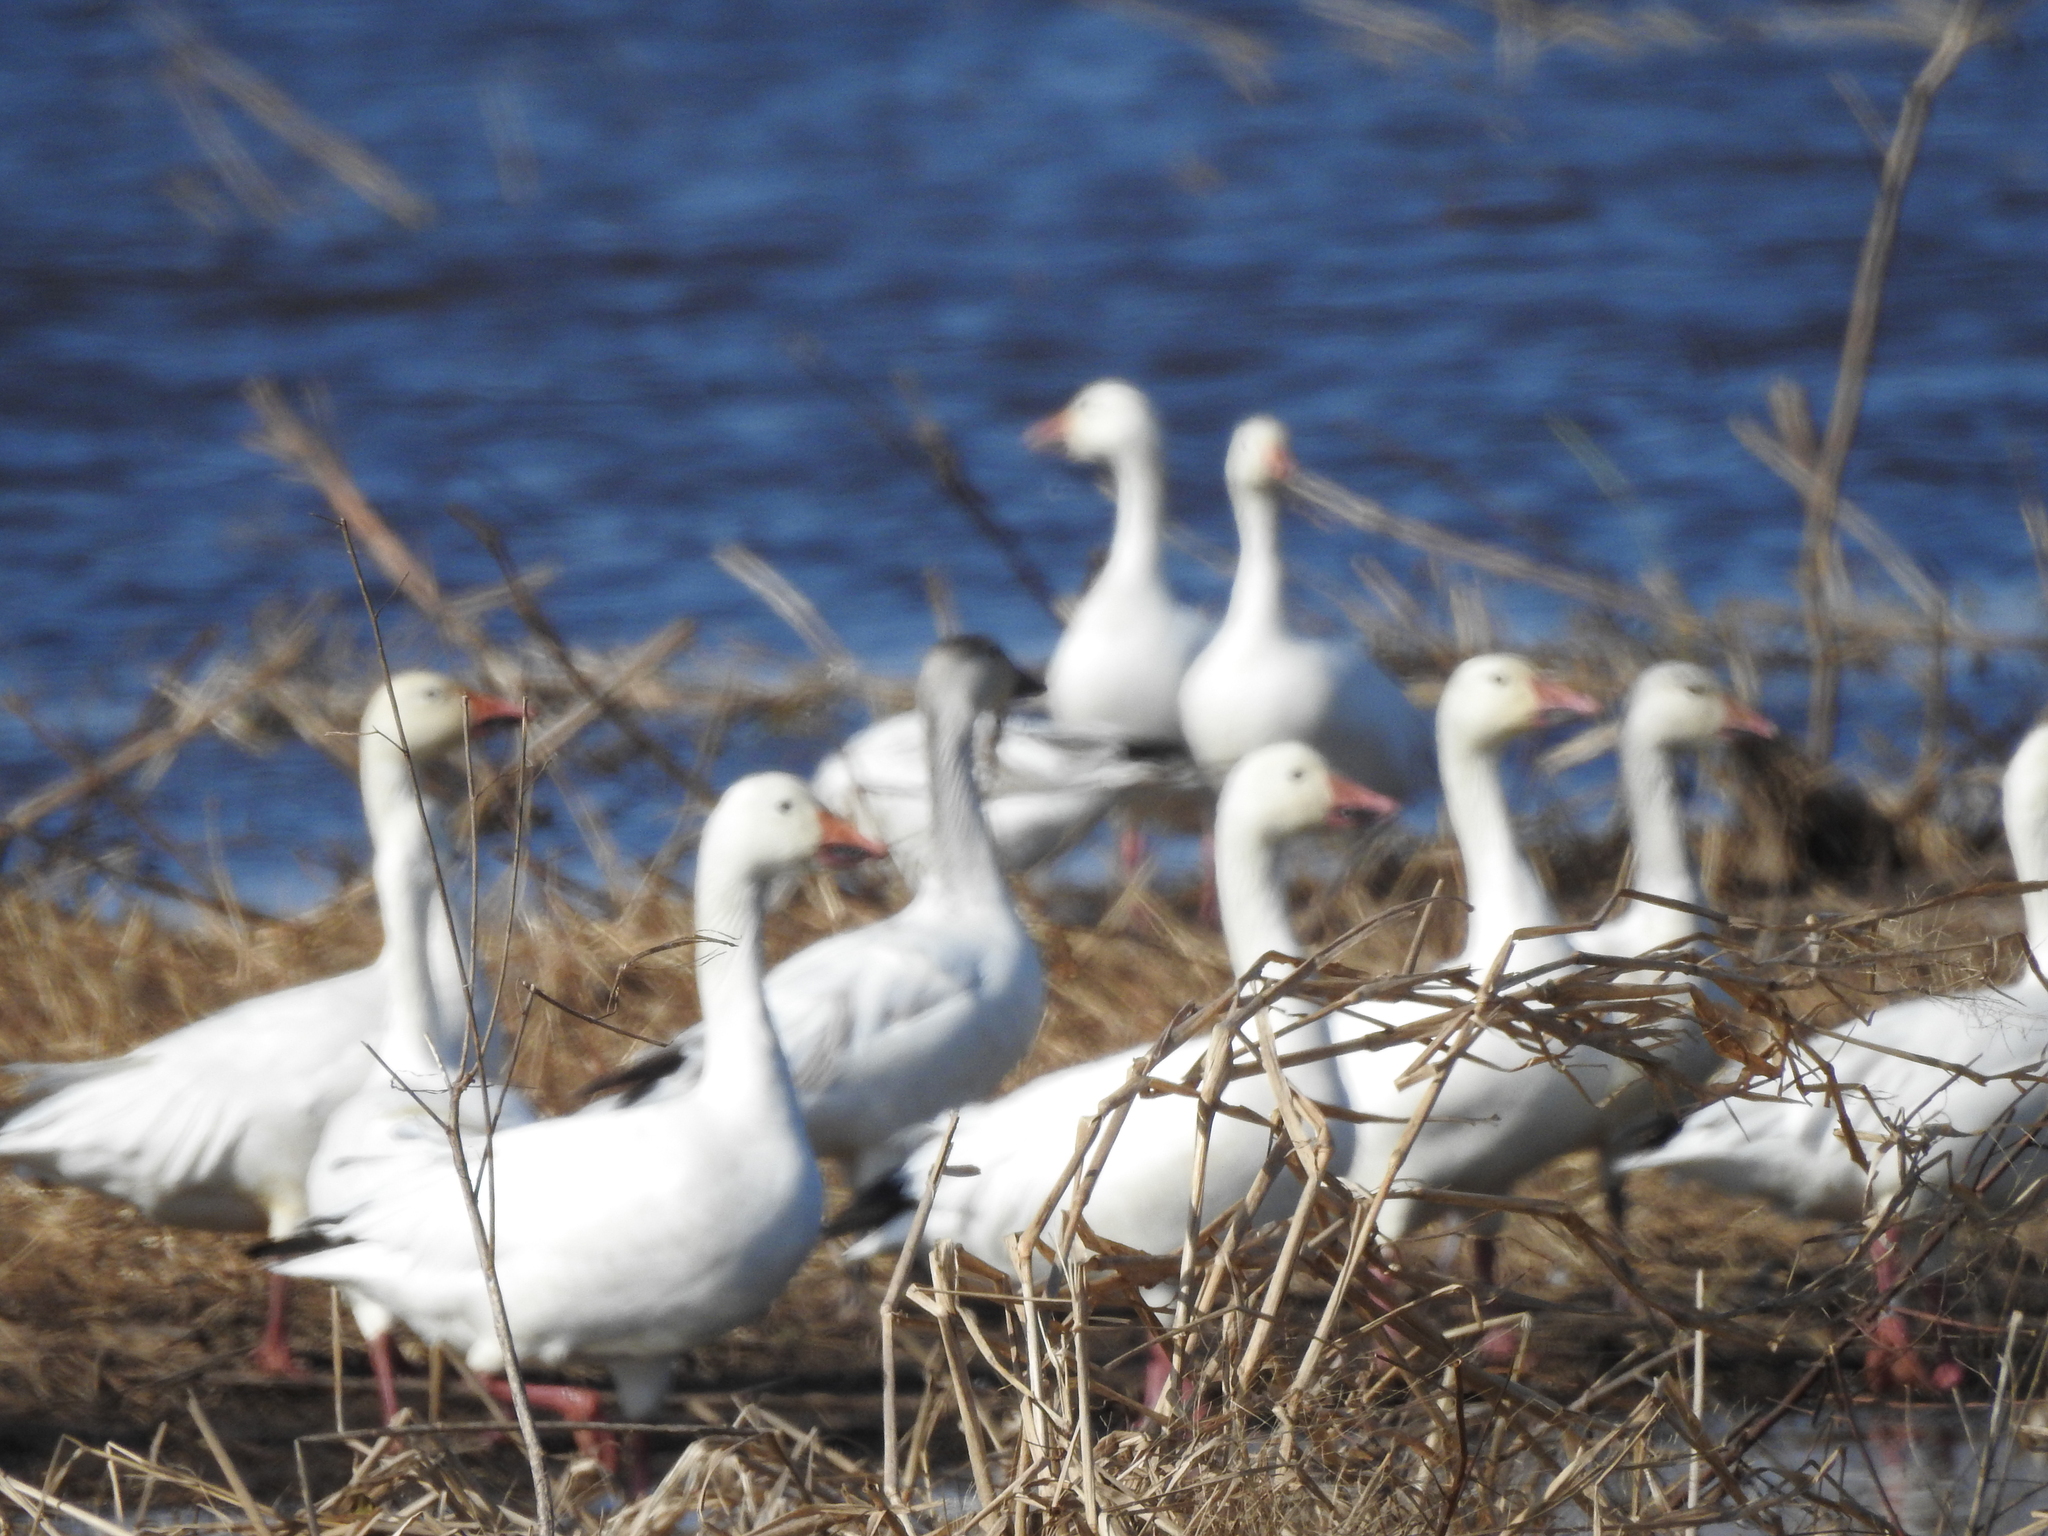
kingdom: Animalia
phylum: Chordata
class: Aves
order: Anseriformes
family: Anatidae
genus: Anser
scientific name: Anser caerulescens
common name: Snow goose
